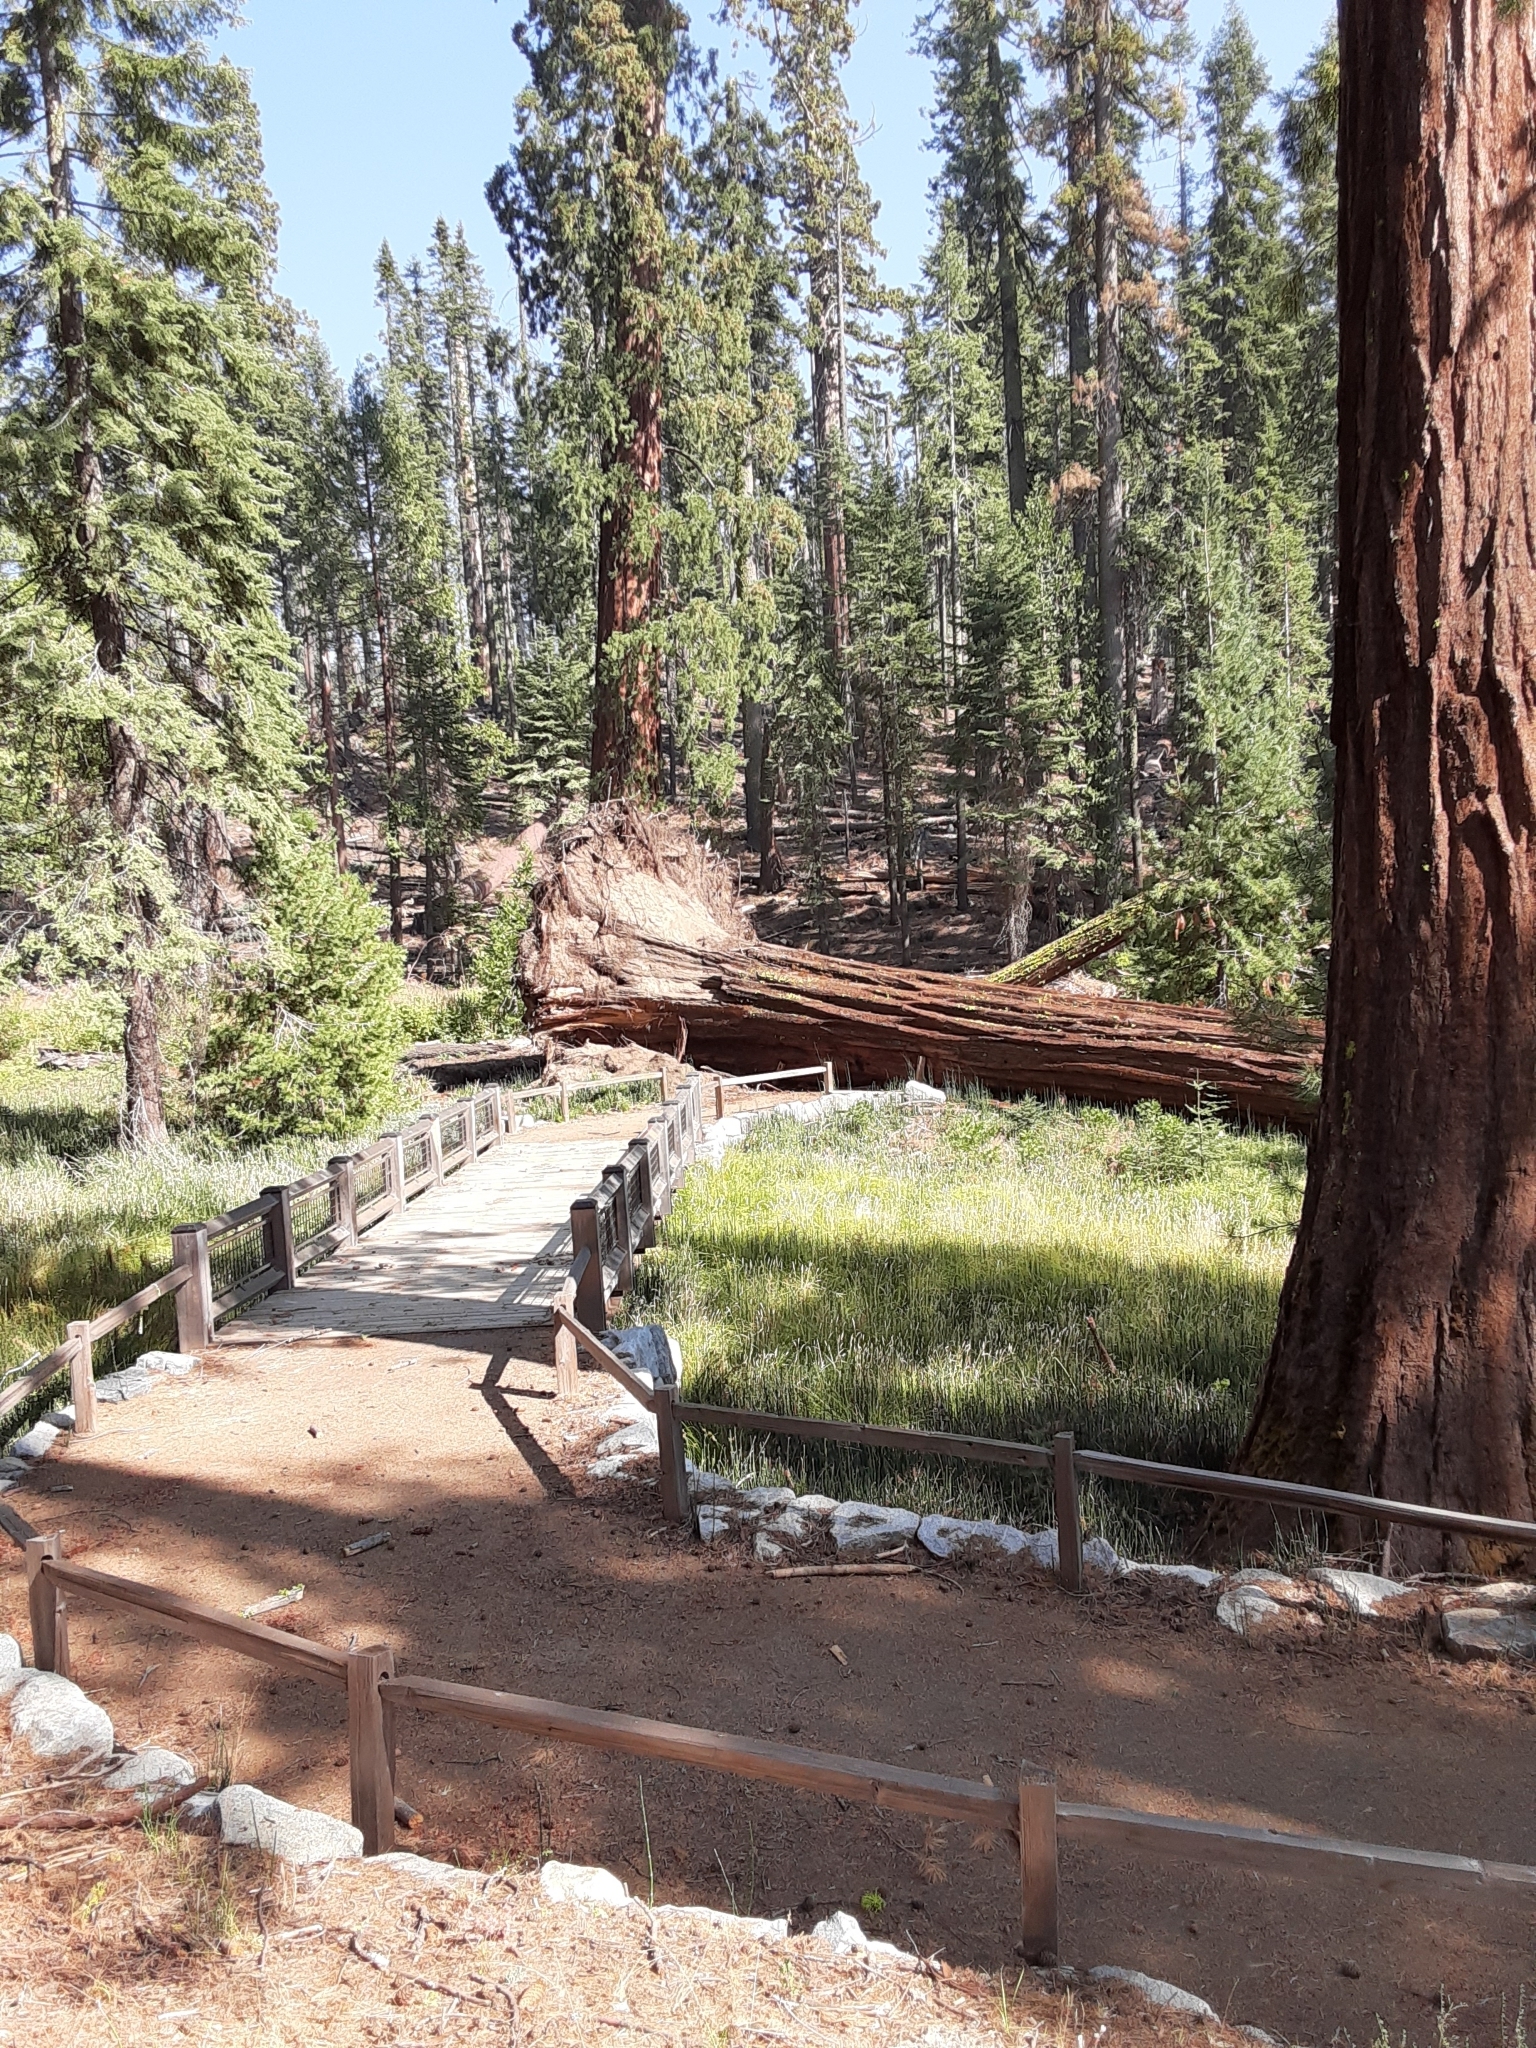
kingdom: Plantae
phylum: Tracheophyta
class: Pinopsida
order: Pinales
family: Cupressaceae
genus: Sequoiadendron
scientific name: Sequoiadendron giganteum
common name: Wellingtonia
